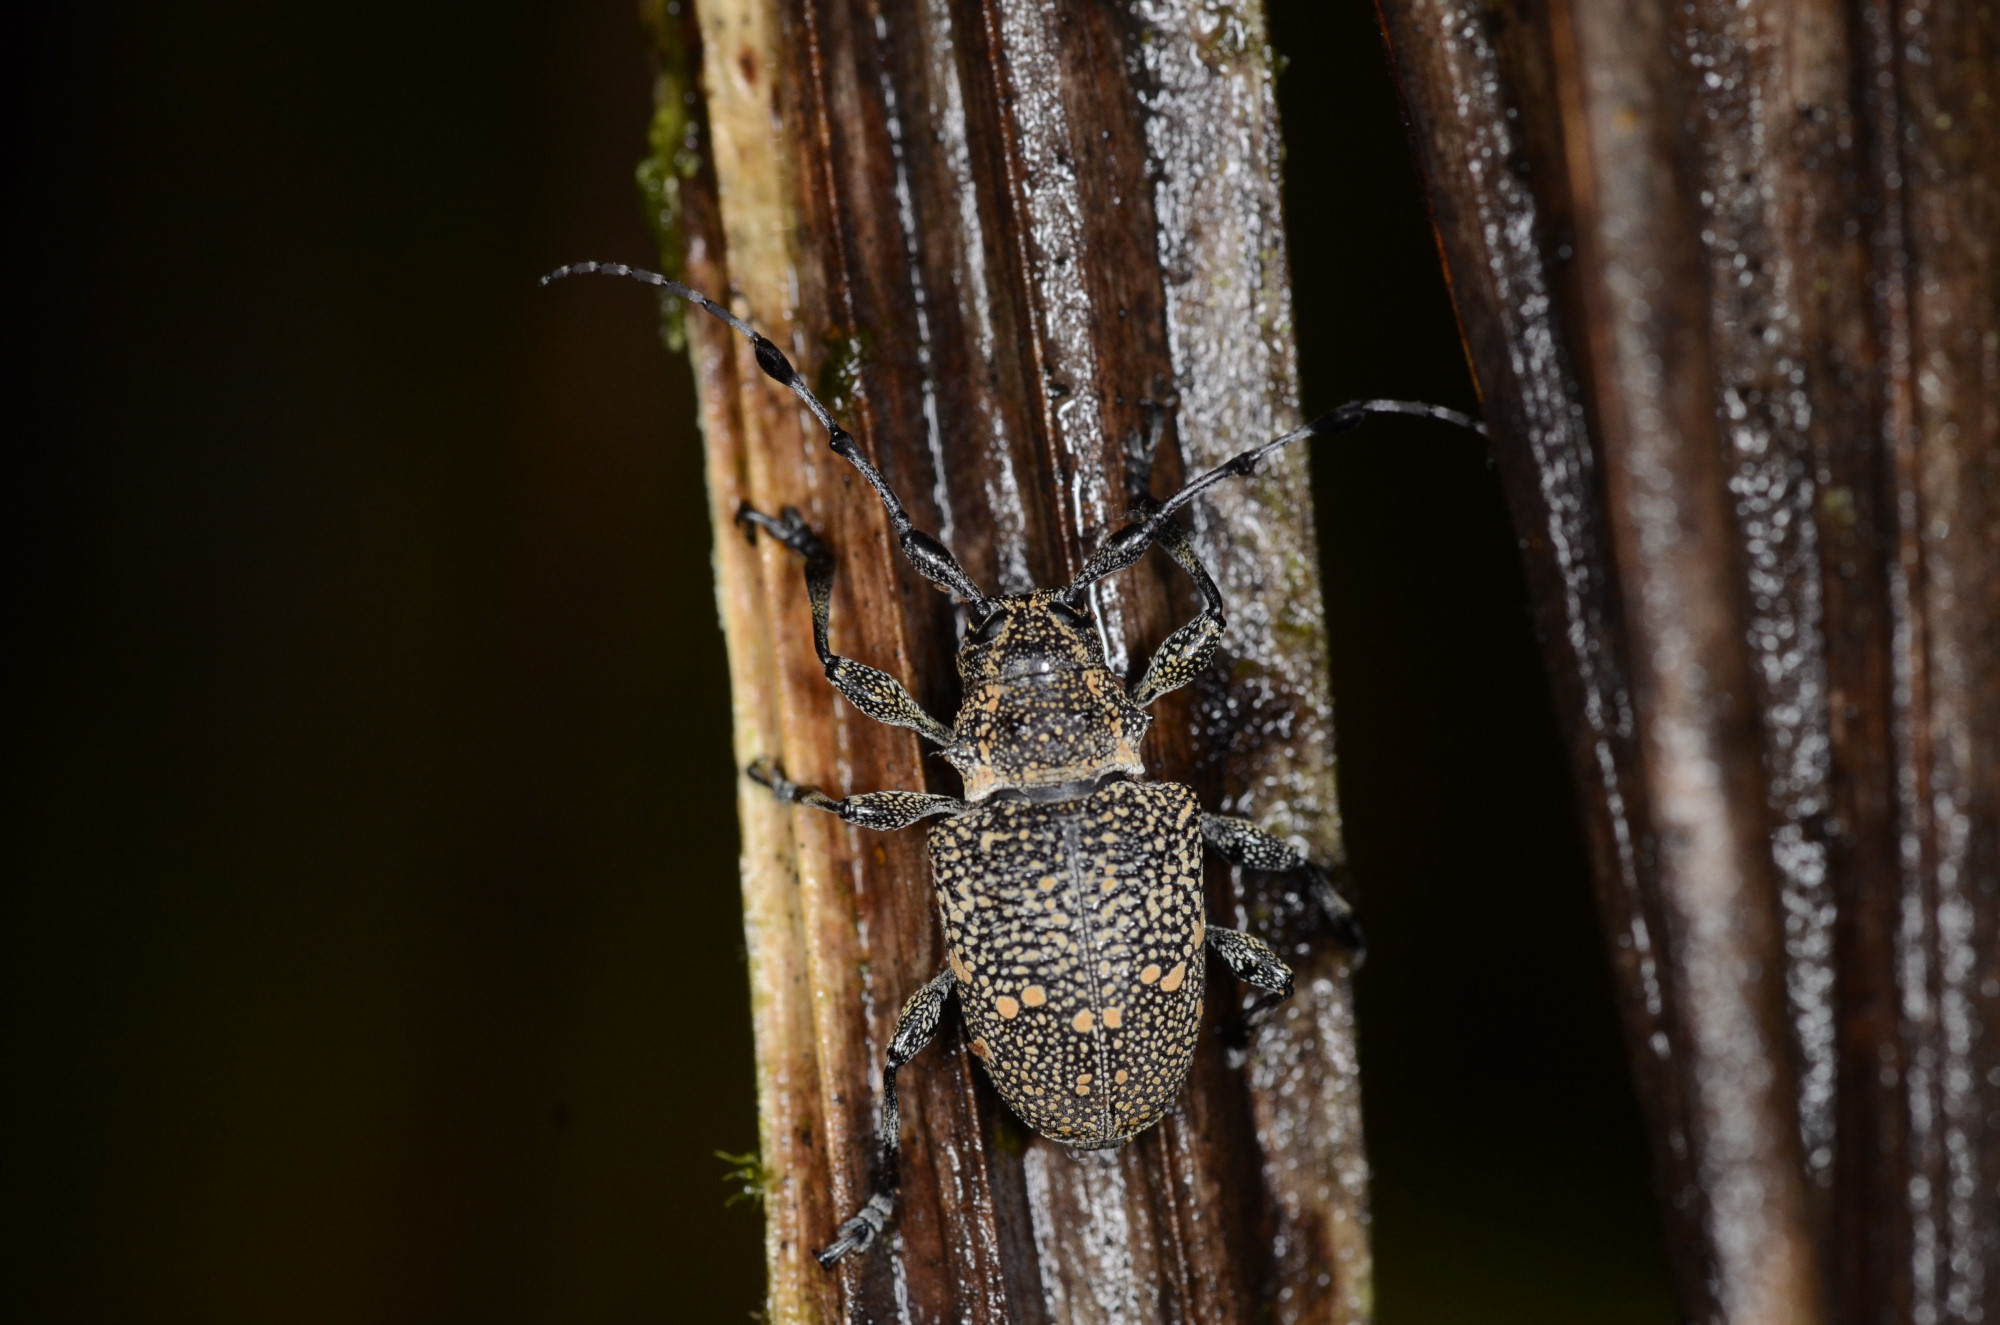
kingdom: Animalia
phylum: Arthropoda
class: Insecta
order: Coleoptera
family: Cerambycidae
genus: Batesbeltia
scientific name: Batesbeltia verecunda
